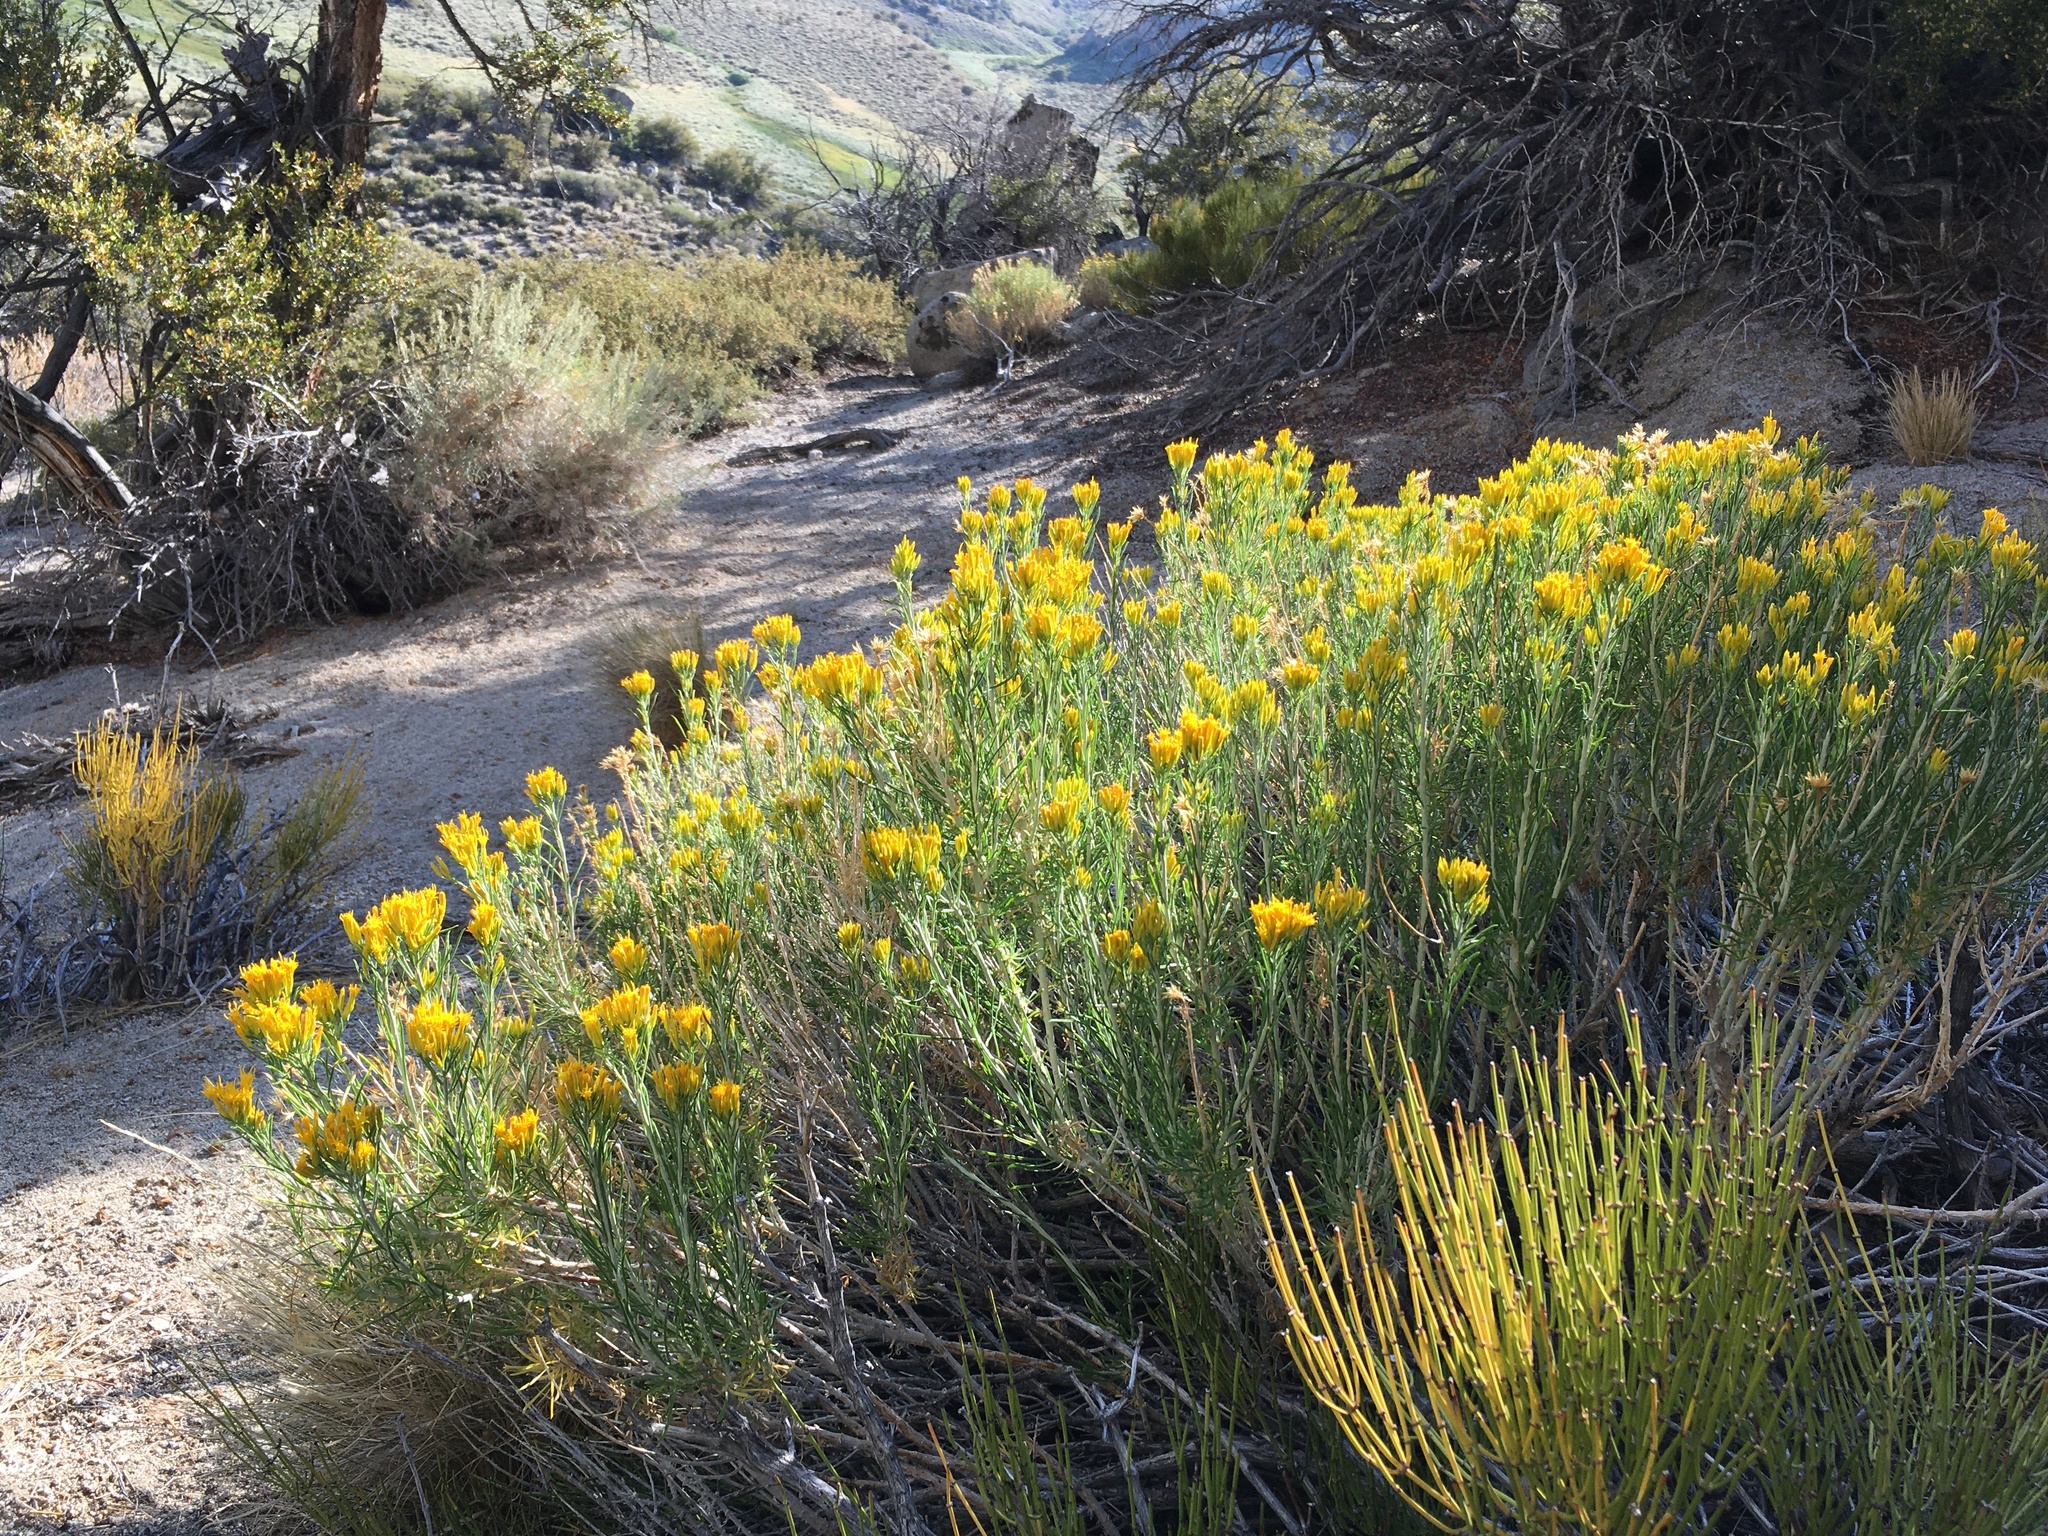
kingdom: Plantae
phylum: Tracheophyta
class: Magnoliopsida
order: Asterales
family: Asteraceae
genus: Ericameria
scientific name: Ericameria nauseosa
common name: Rubber rabbitbrush
